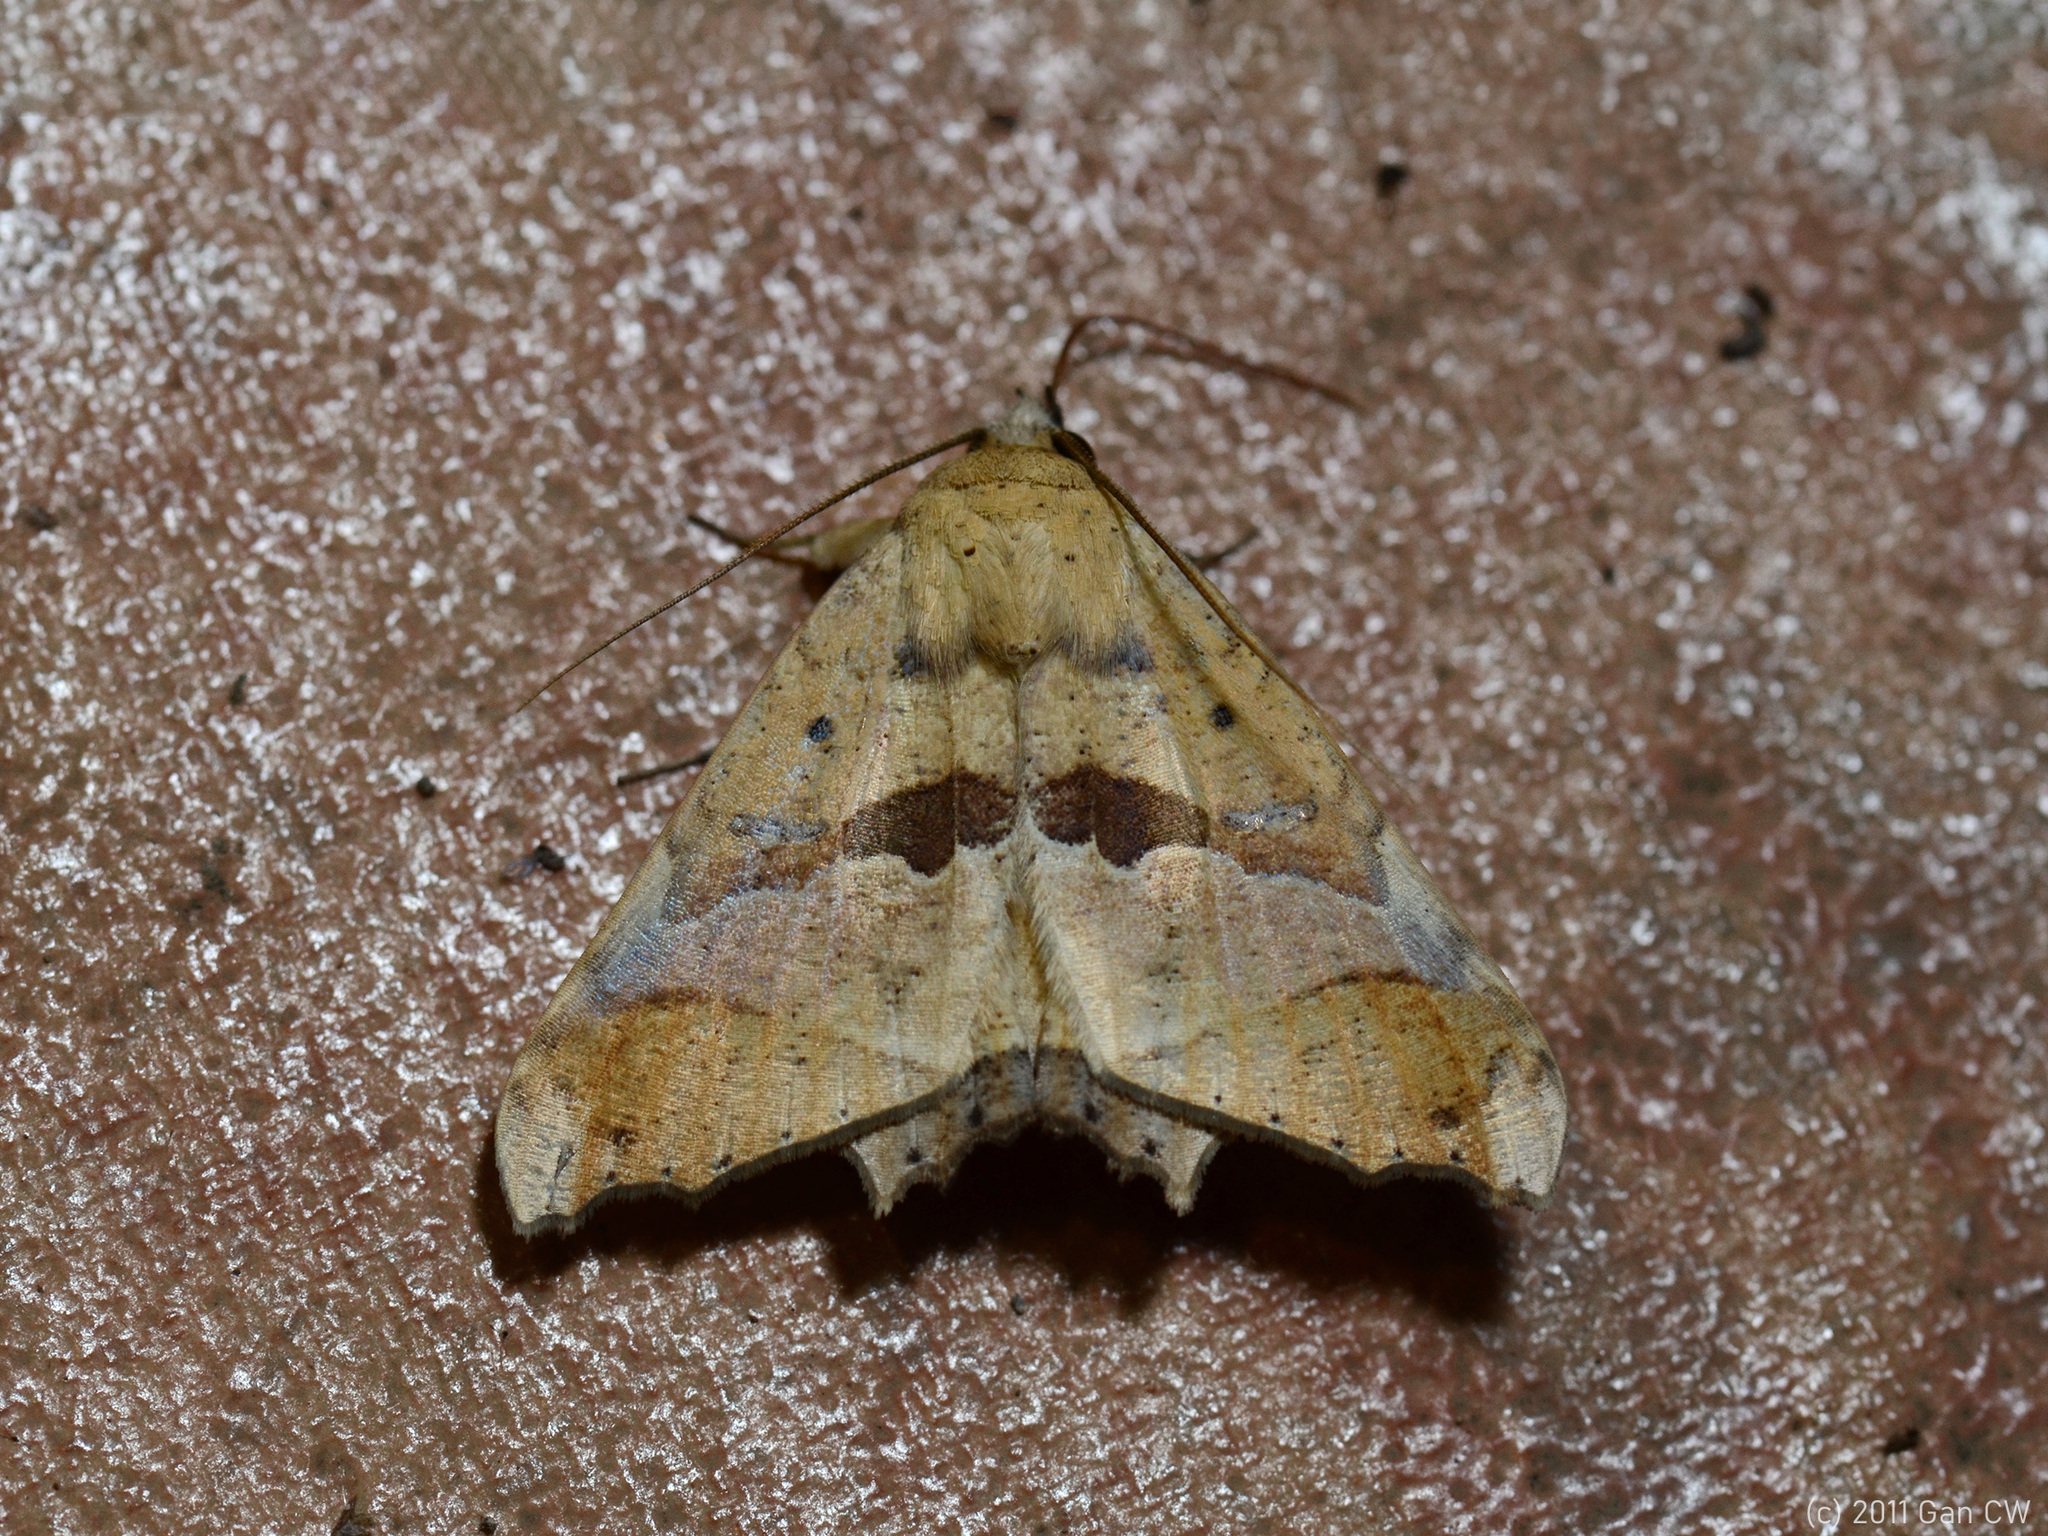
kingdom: Animalia
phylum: Arthropoda
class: Insecta
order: Lepidoptera
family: Erebidae
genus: Semiothisops
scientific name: Semiothisops macariata
